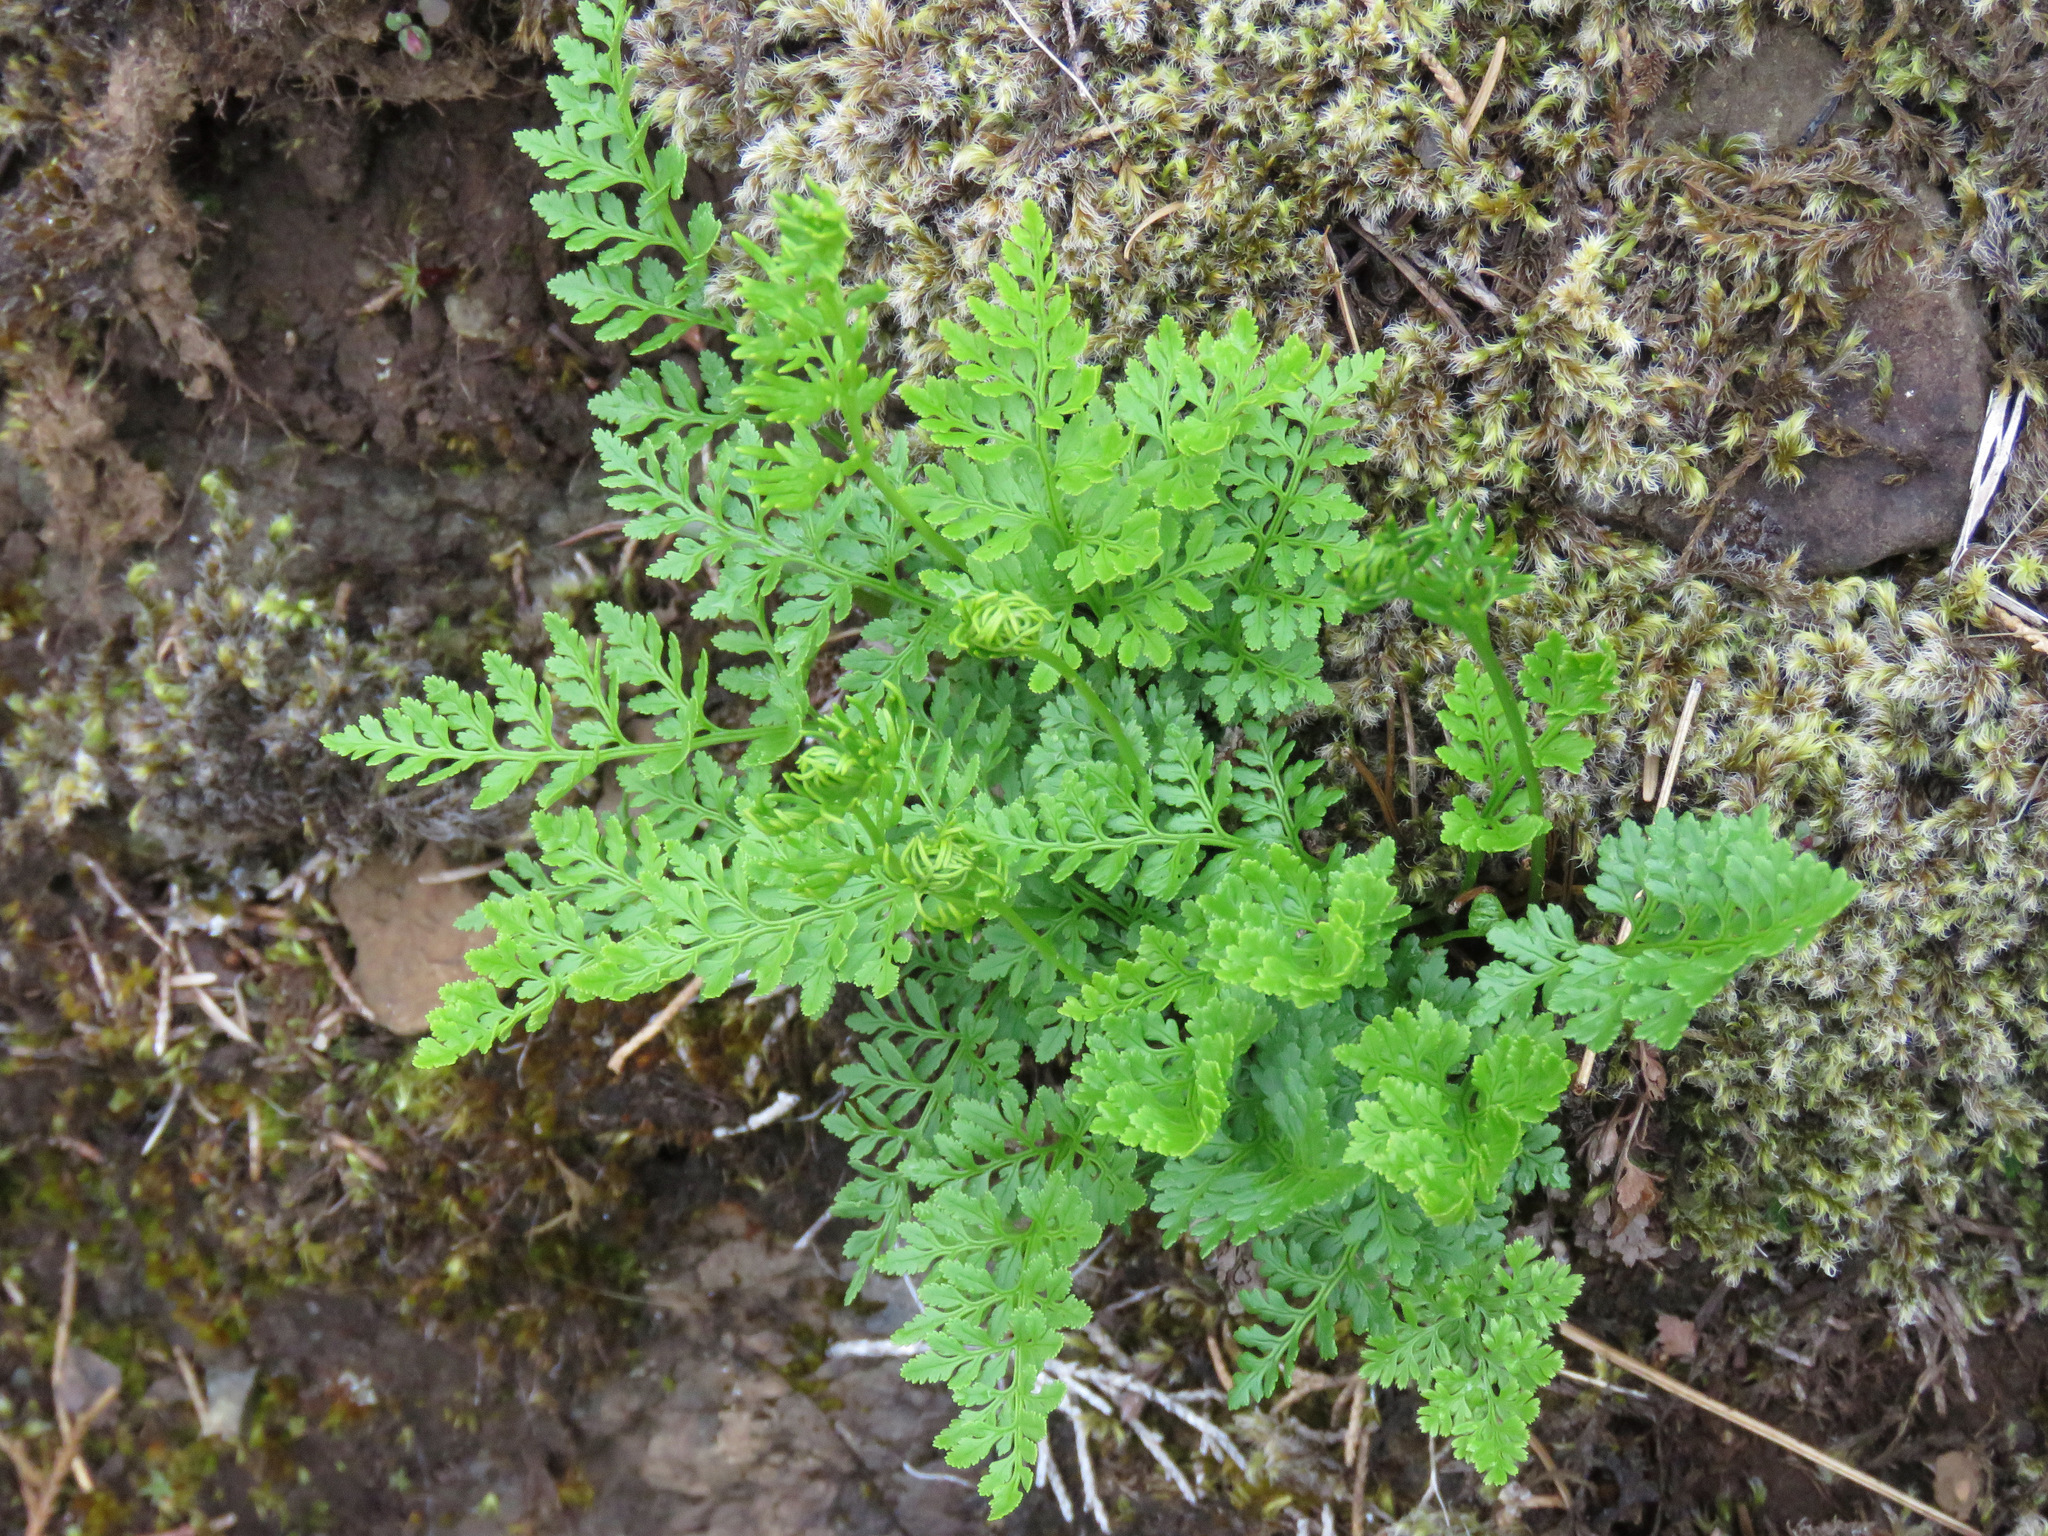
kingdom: Plantae
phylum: Tracheophyta
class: Polypodiopsida
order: Polypodiales
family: Pteridaceae
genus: Cryptogramma
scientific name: Cryptogramma acrostichoides
